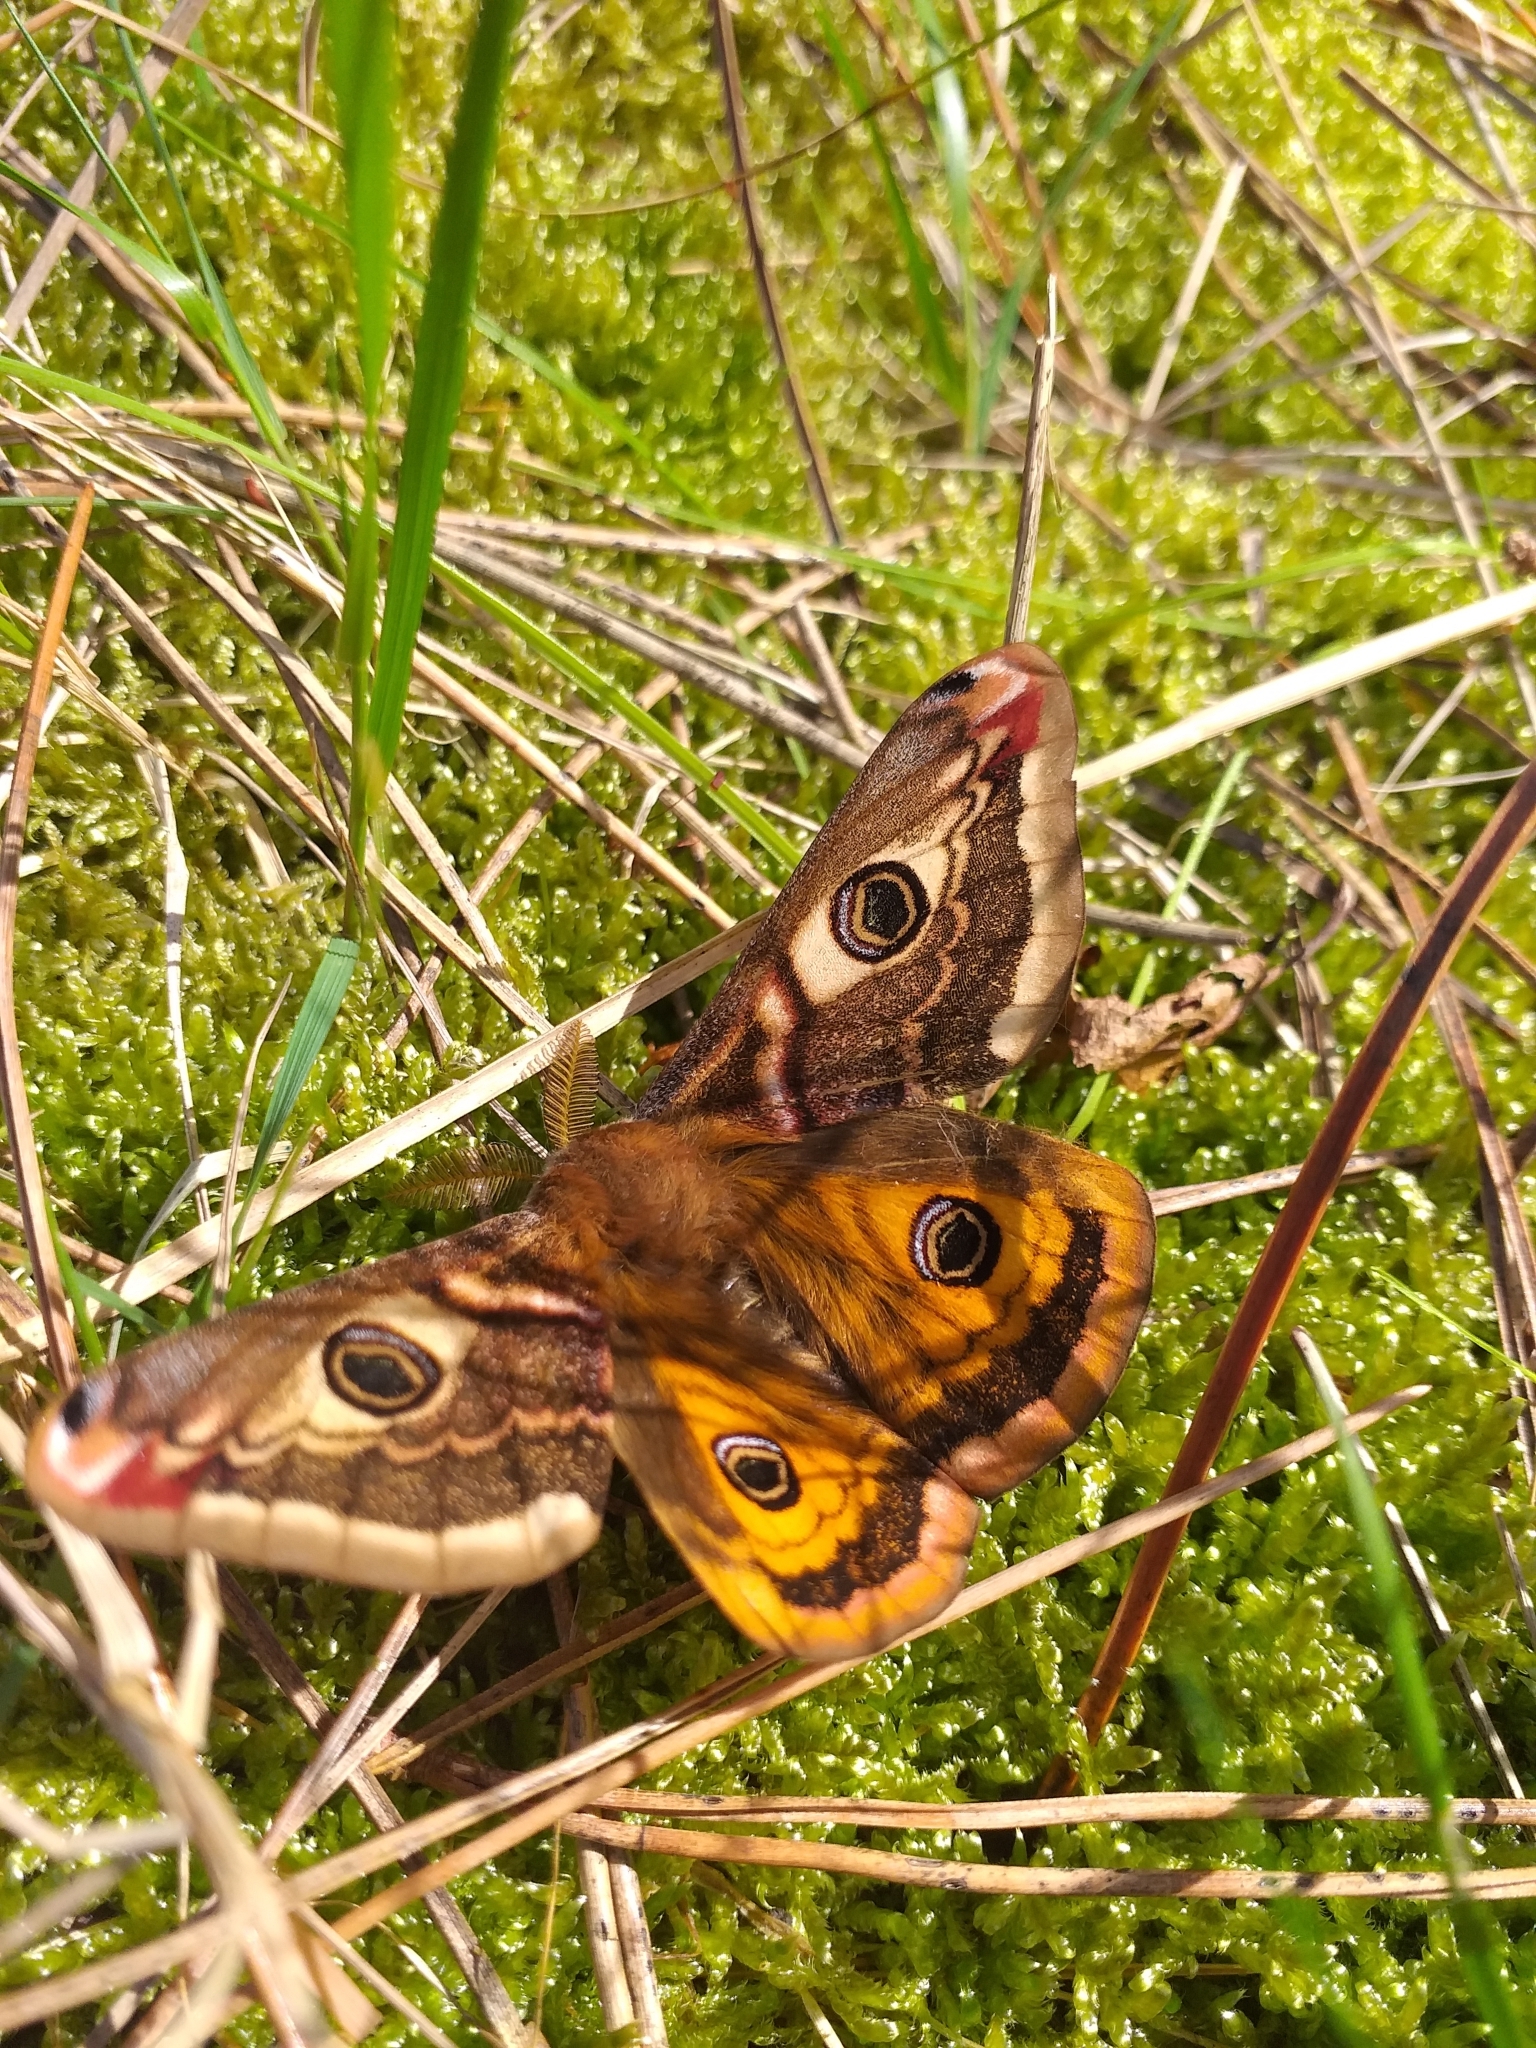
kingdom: Animalia
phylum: Arthropoda
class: Insecta
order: Lepidoptera
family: Saturniidae
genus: Saturnia
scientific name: Saturnia pavonia
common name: Emperor moth
